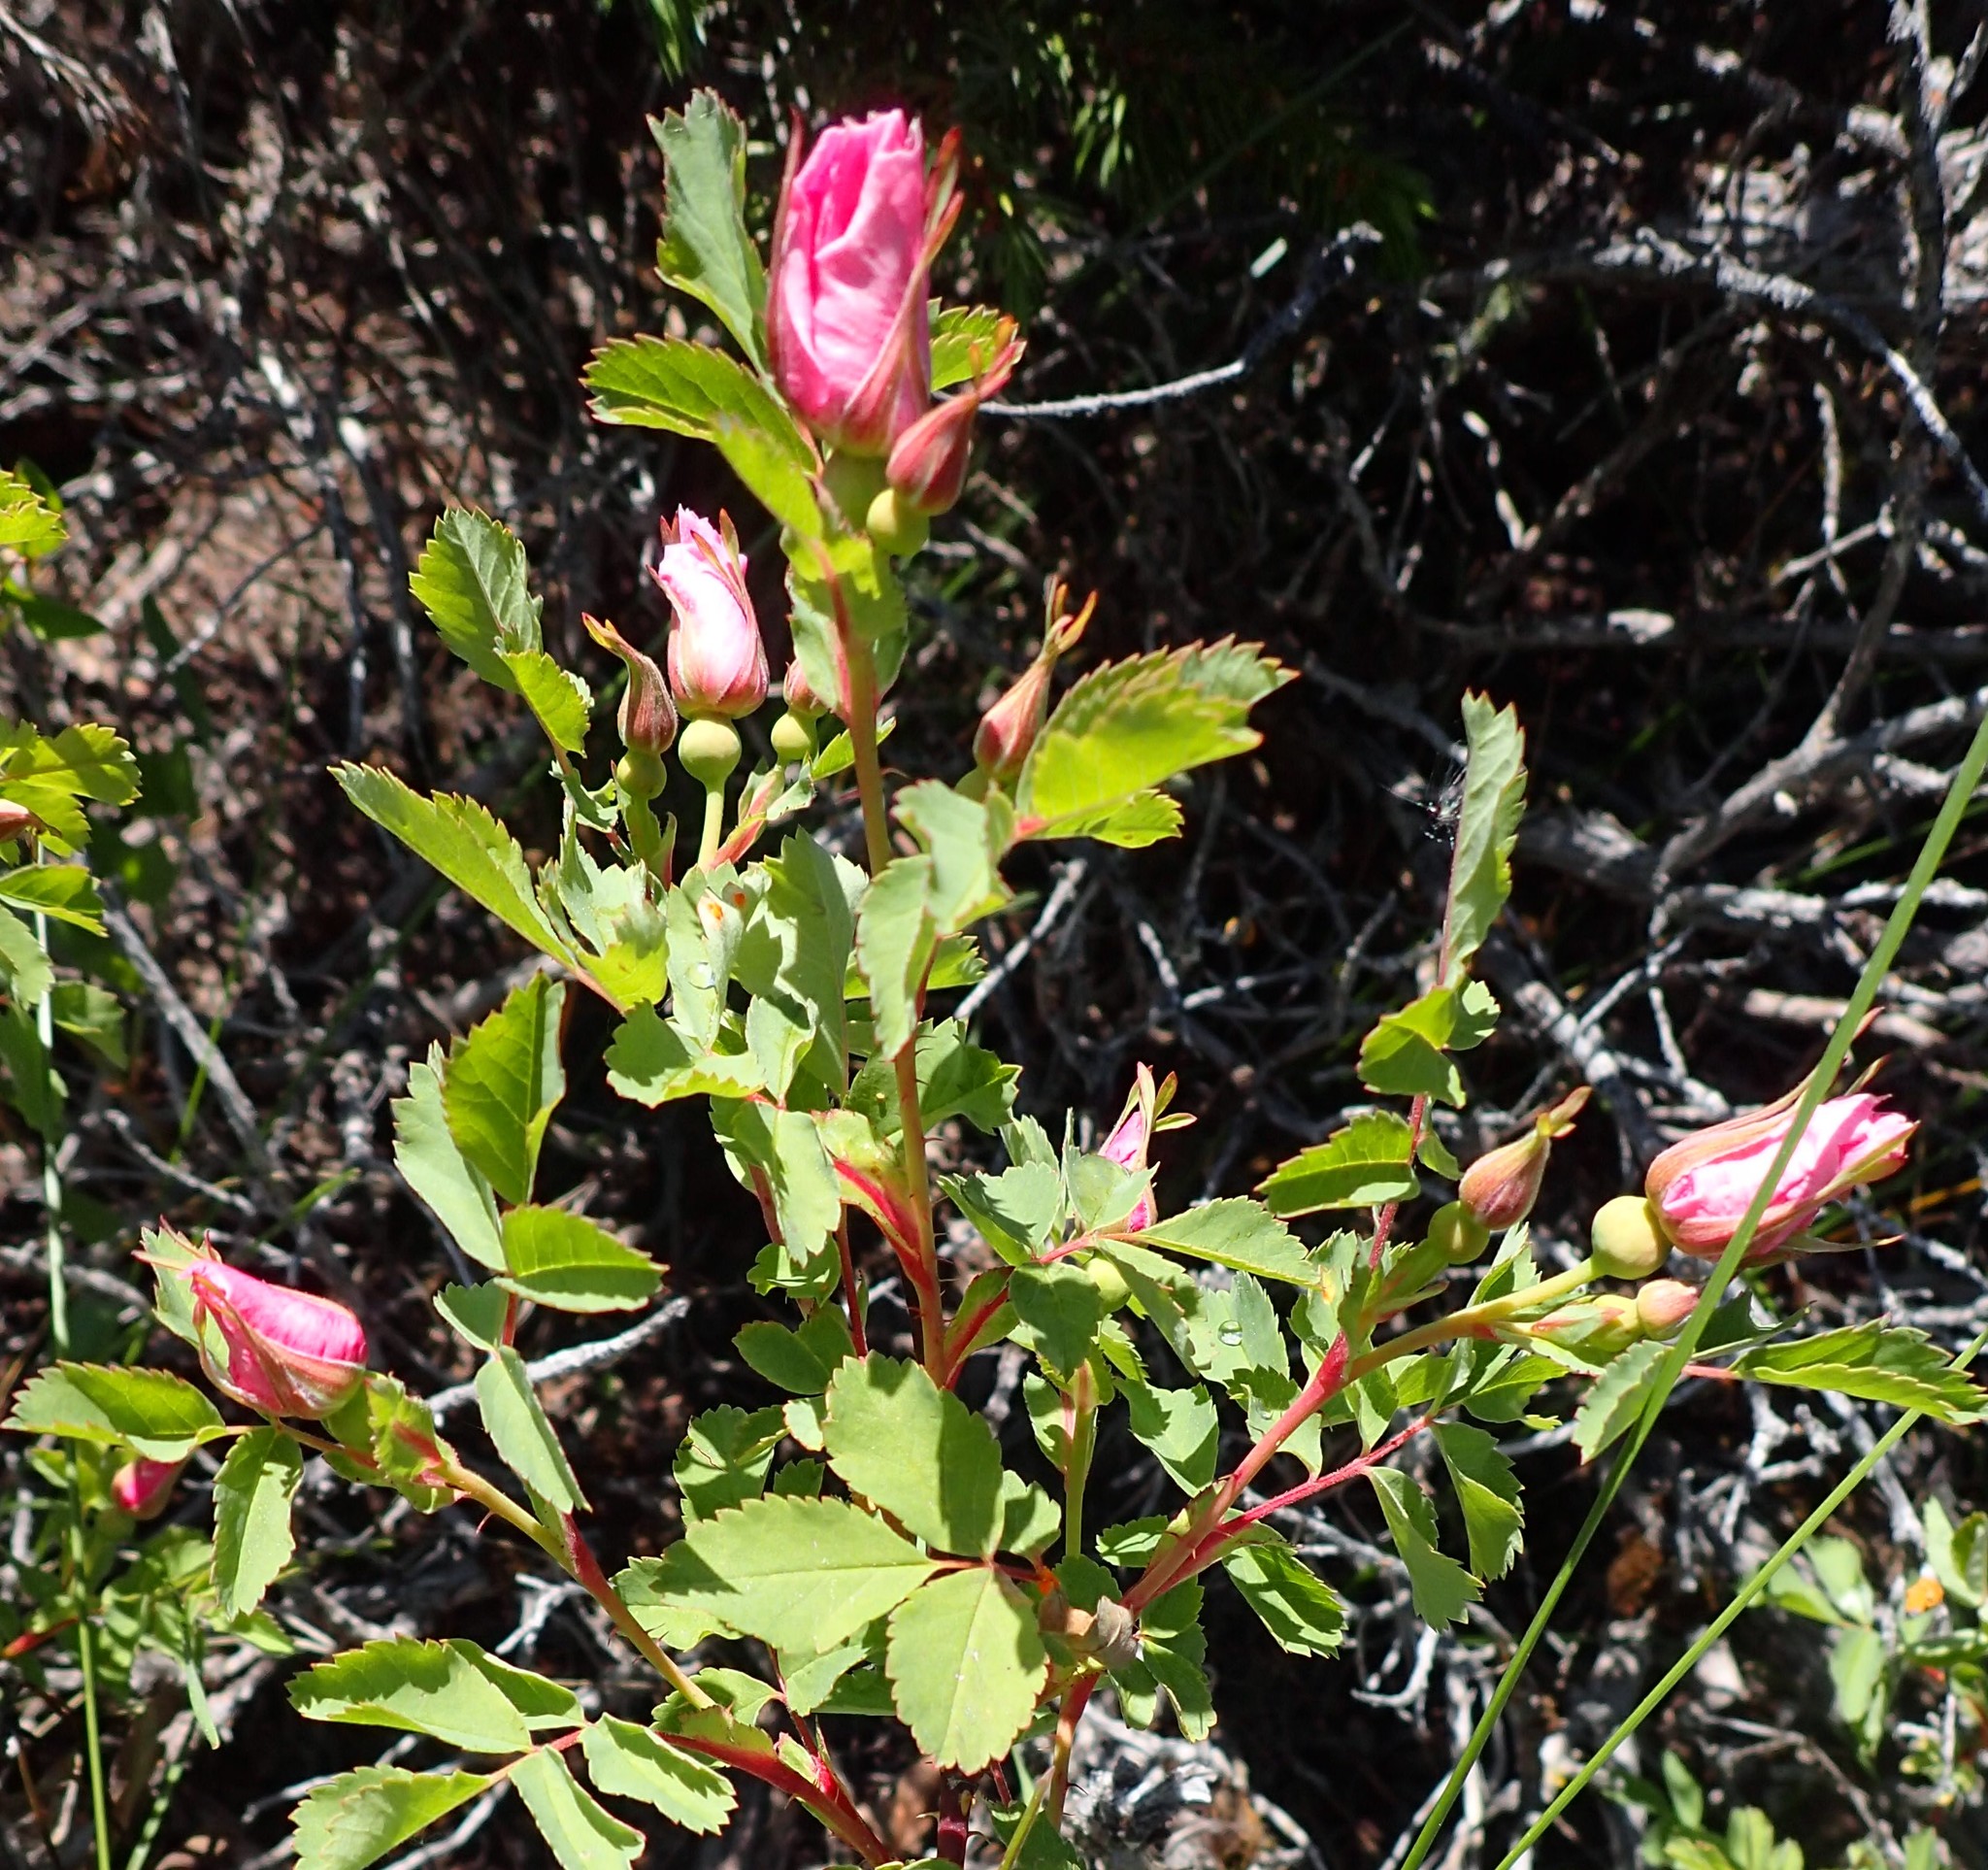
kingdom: Plantae
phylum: Tracheophyta
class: Magnoliopsida
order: Rosales
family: Rosaceae
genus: Rosa
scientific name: Rosa arkansana
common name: Prairie rose
